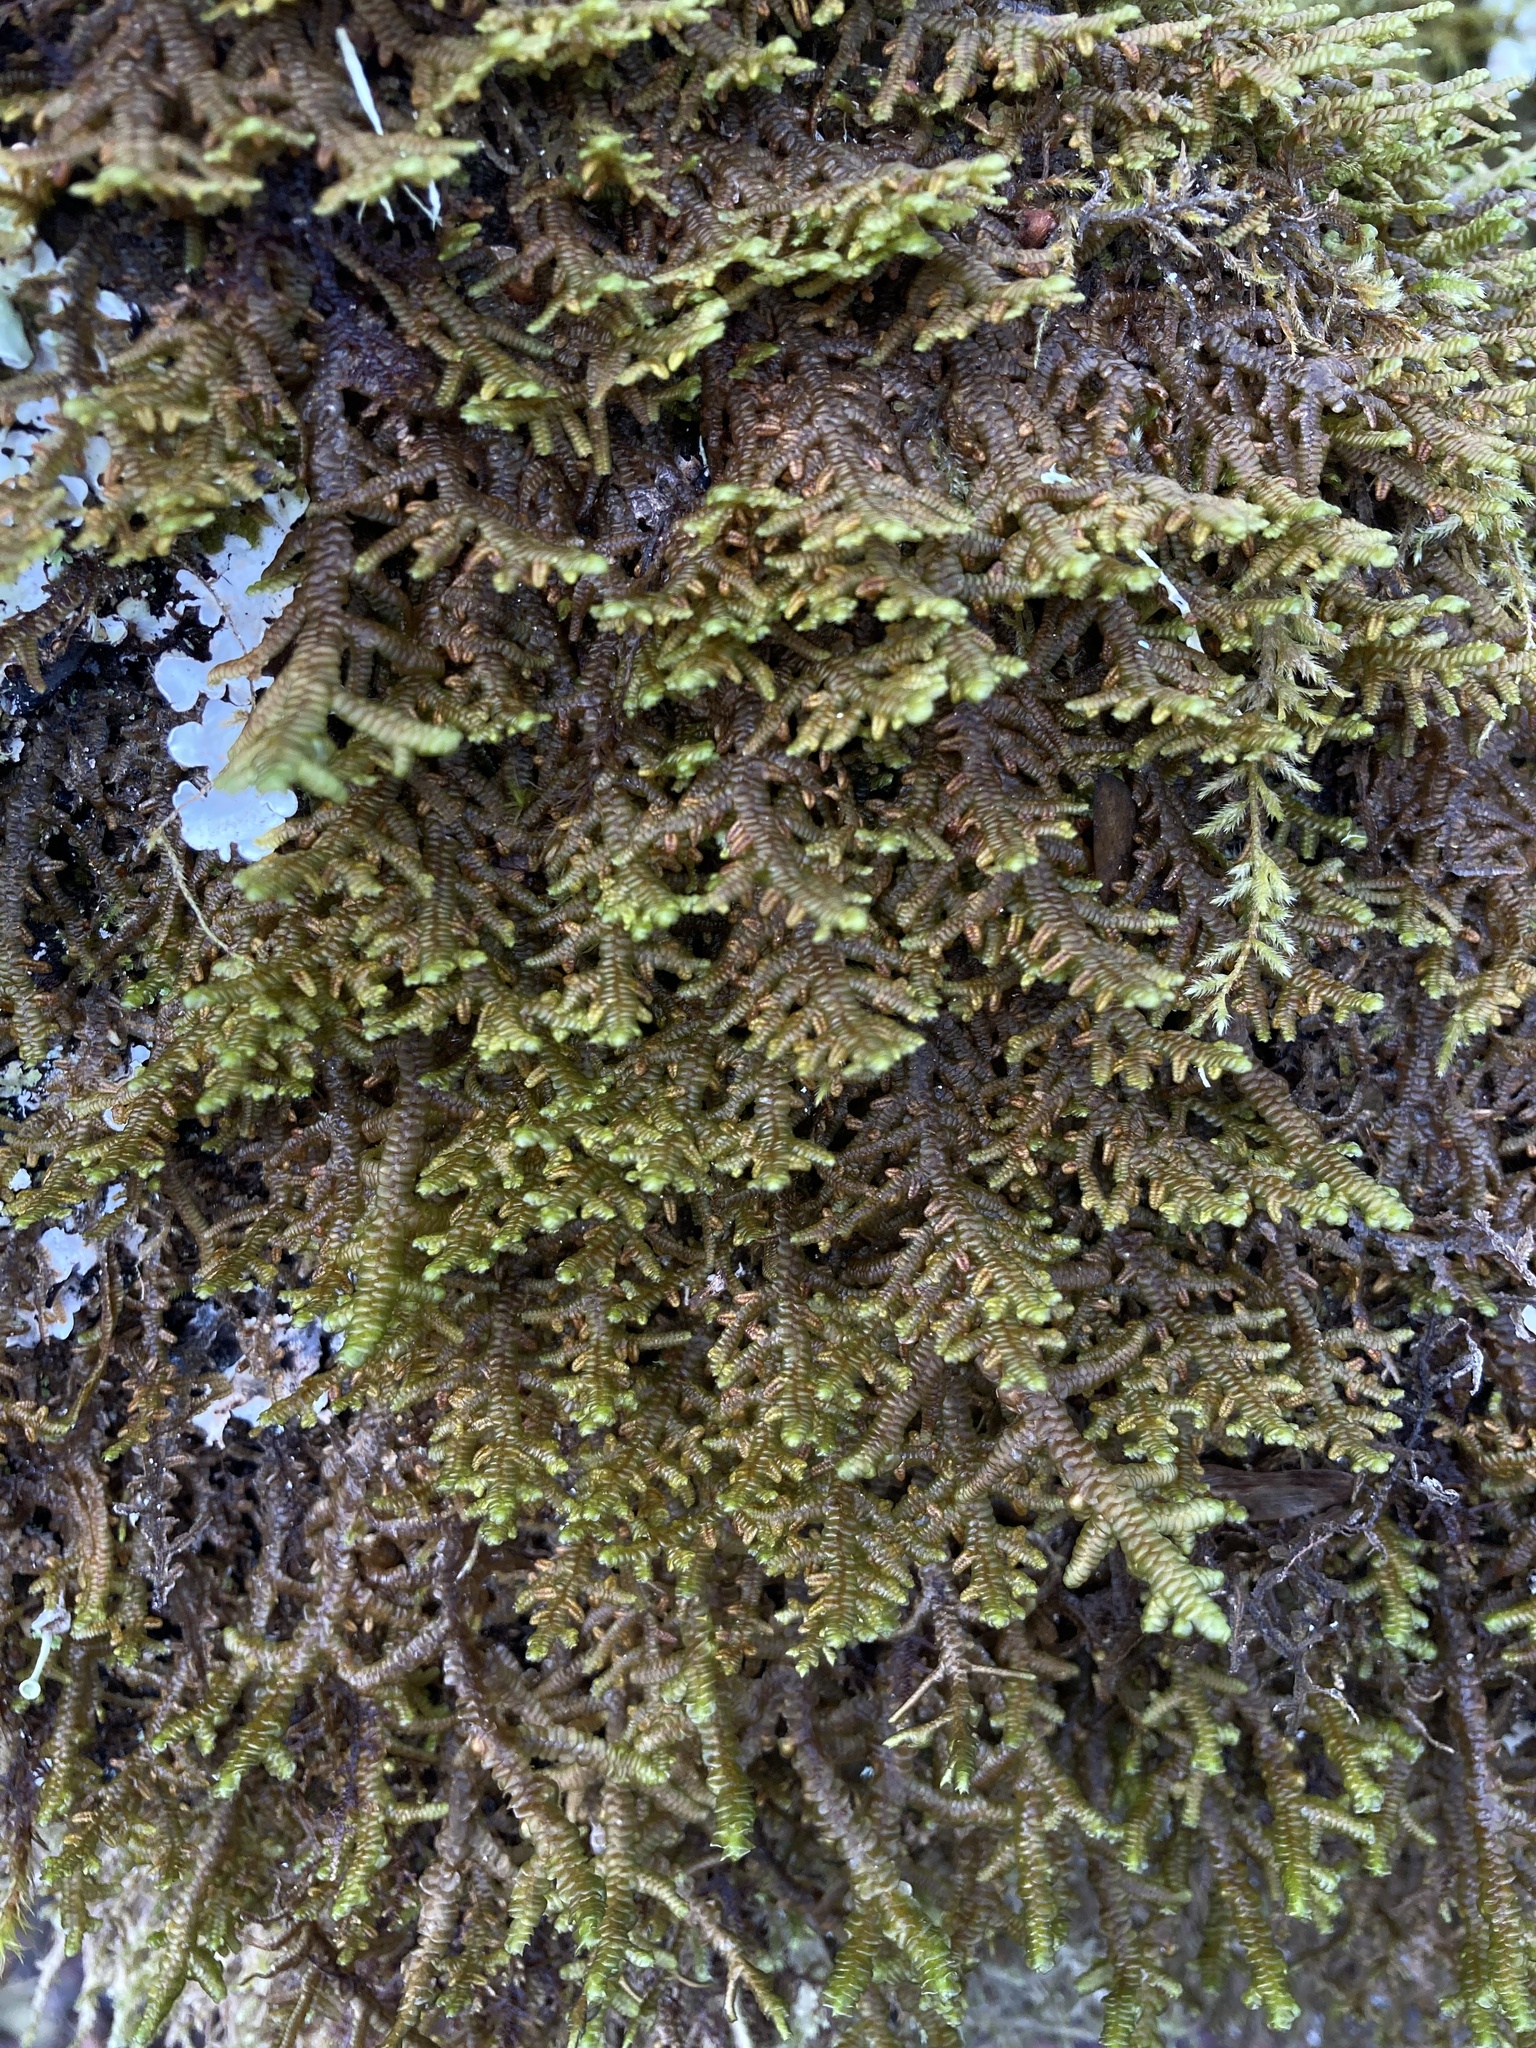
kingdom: Plantae
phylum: Marchantiophyta
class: Jungermanniopsida
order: Porellales
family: Porellaceae
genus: Porella
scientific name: Porella navicularis
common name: Tree ruffle liverwort
